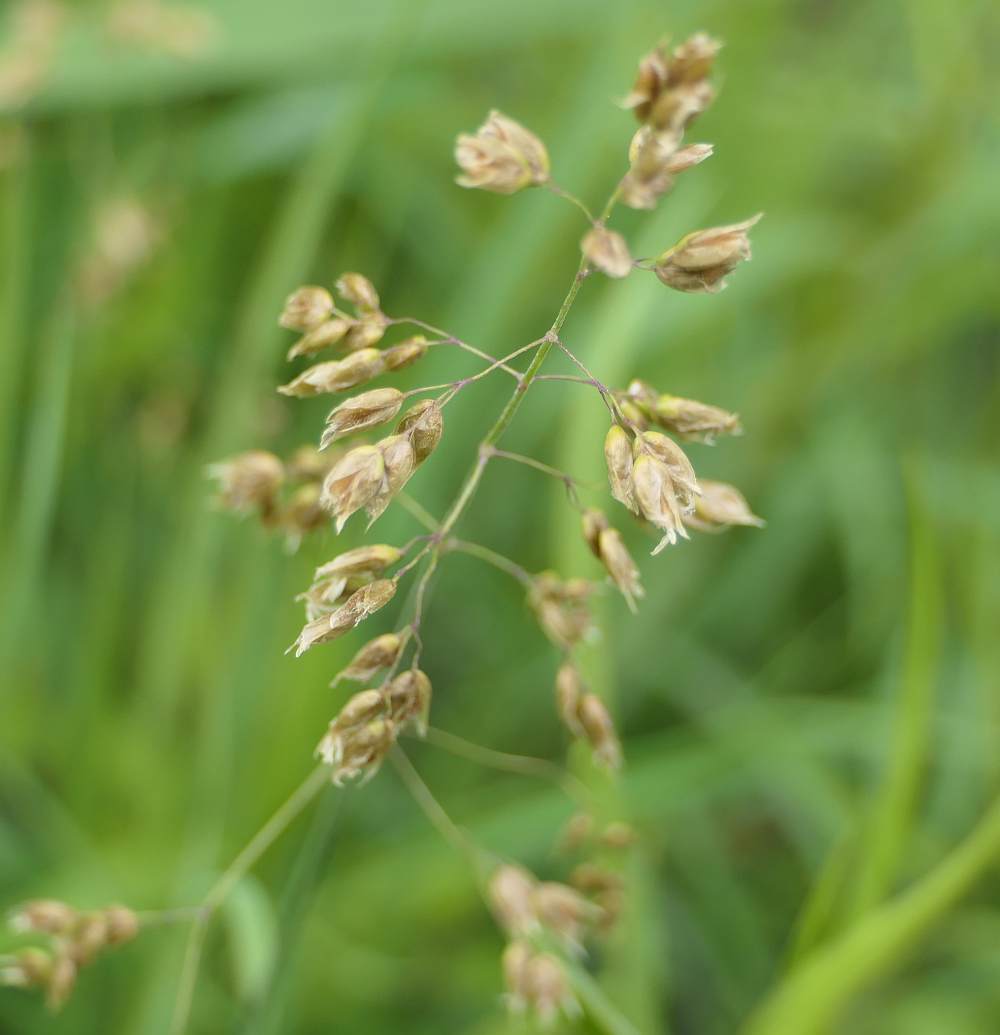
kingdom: Plantae
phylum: Tracheophyta
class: Liliopsida
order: Poales
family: Poaceae
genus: Anthoxanthum
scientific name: Anthoxanthum nitens
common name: Holy grass
